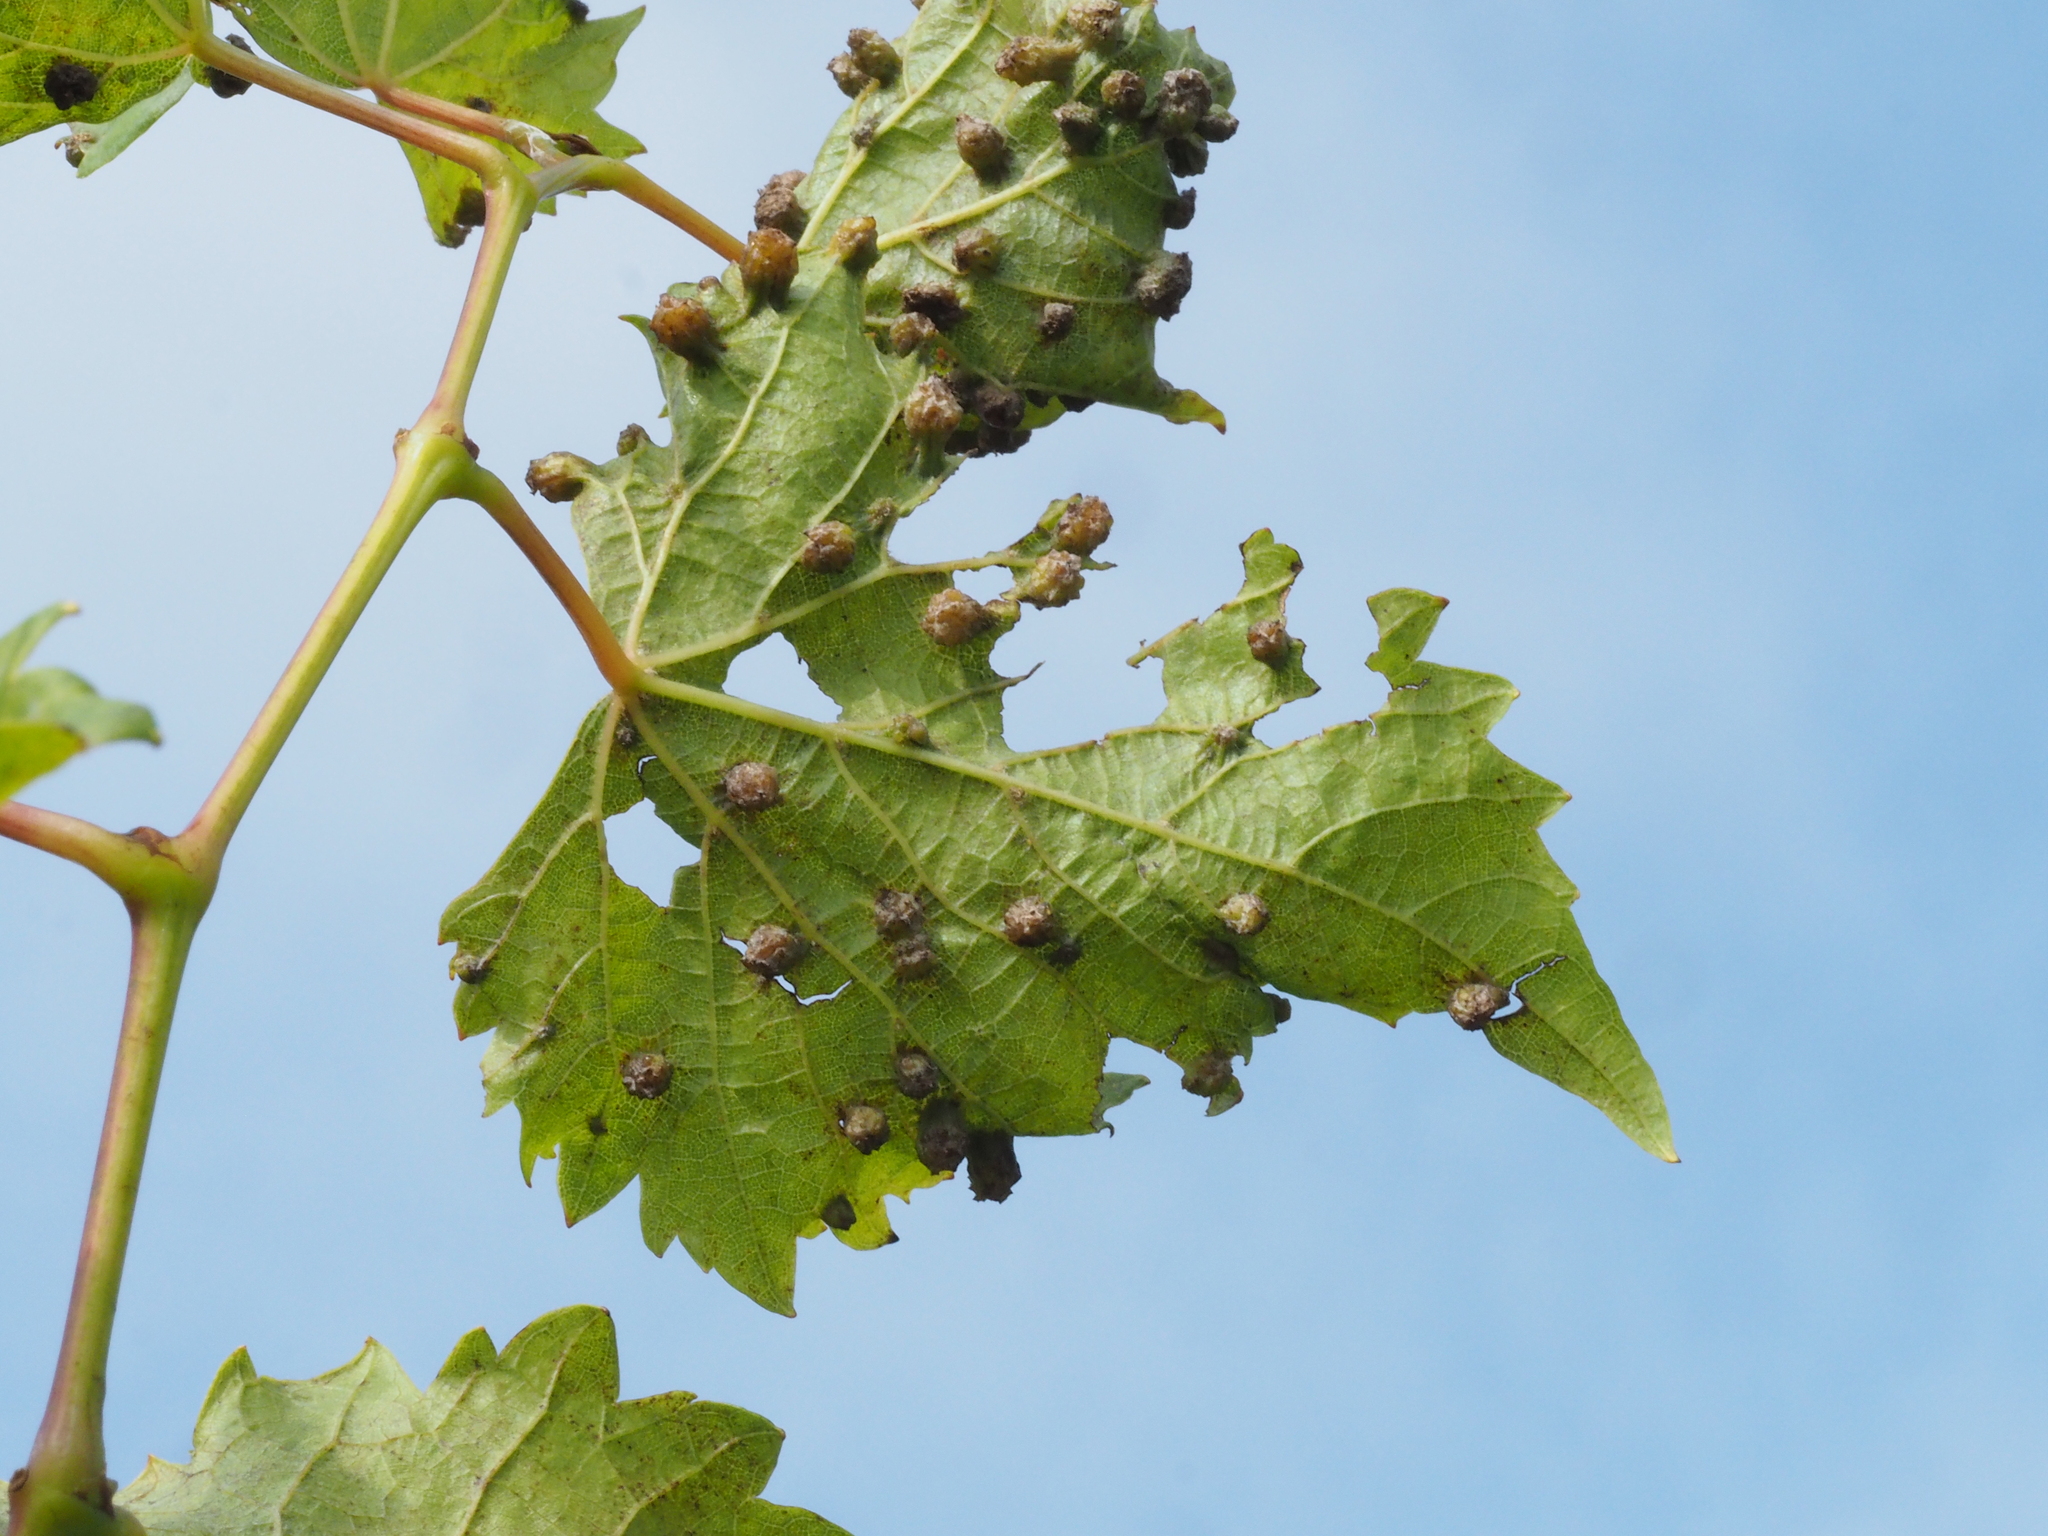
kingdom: Animalia
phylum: Arthropoda
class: Insecta
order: Hemiptera
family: Phylloxeridae
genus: Daktulosphaira
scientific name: Daktulosphaira vitifoliae
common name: Grape phylloxera
